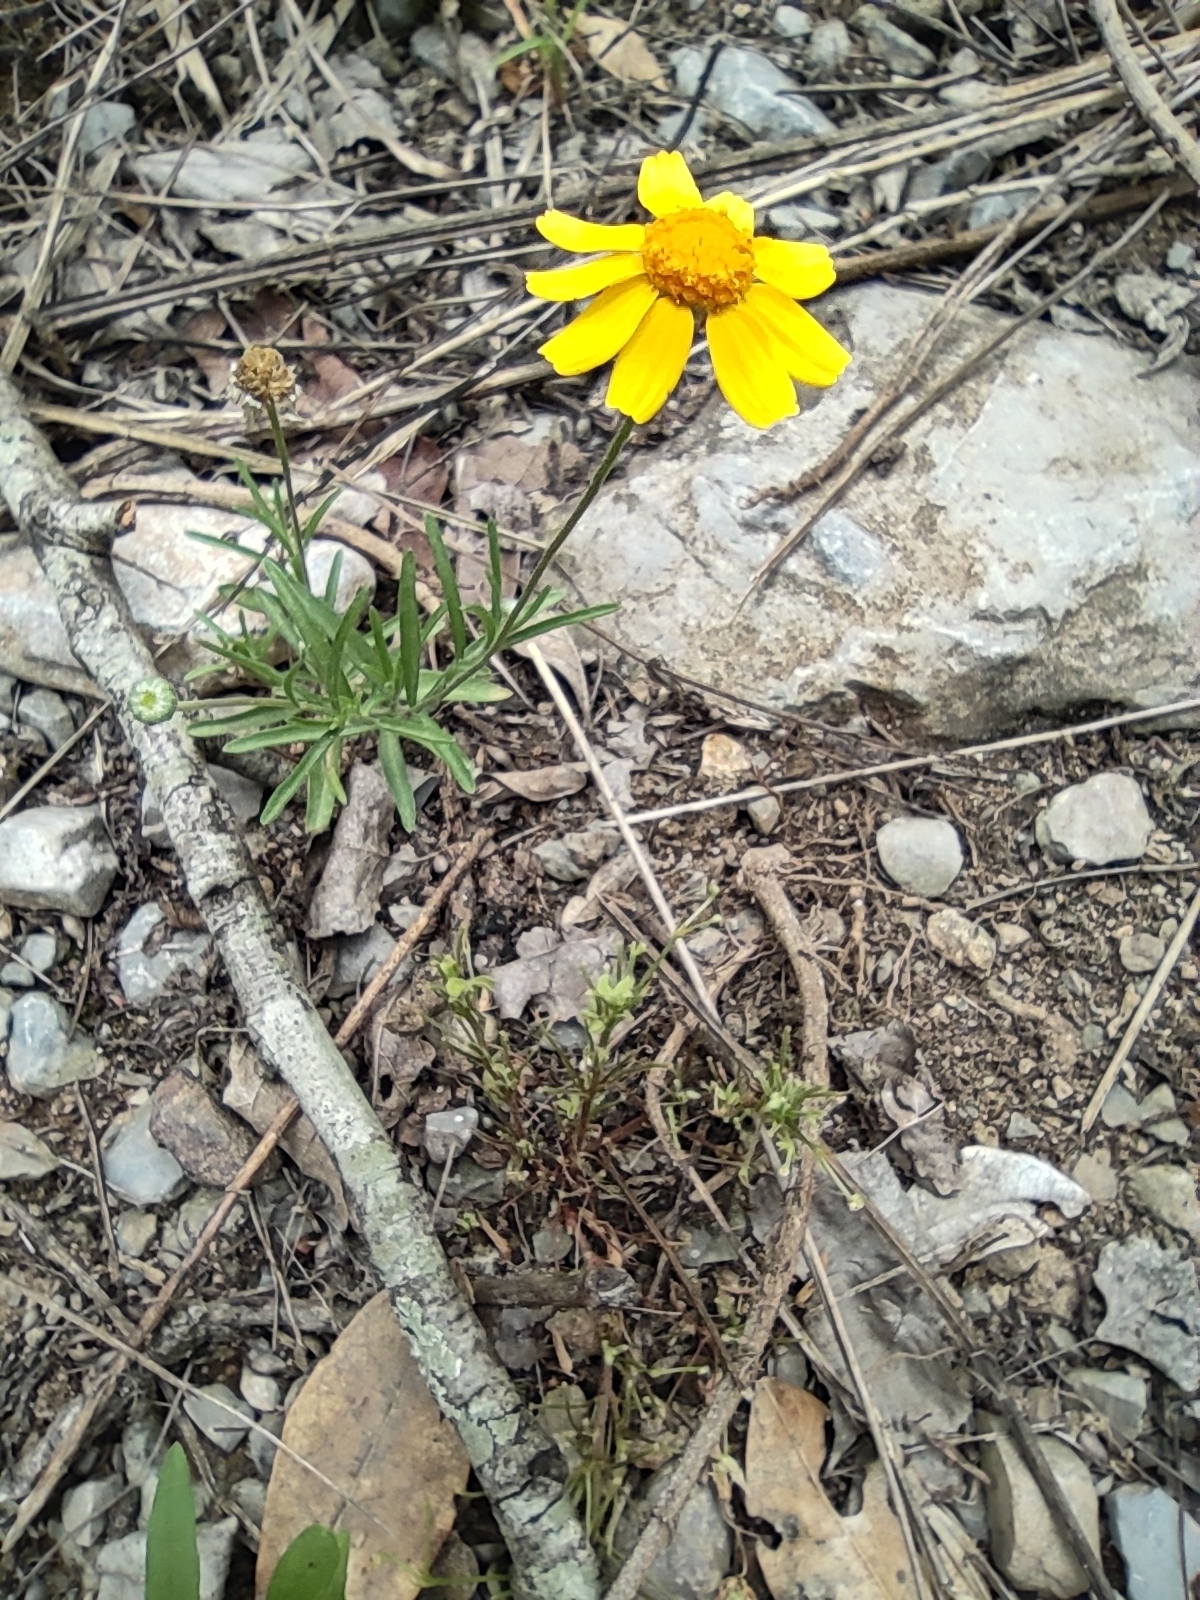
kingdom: Plantae
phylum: Tracheophyta
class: Magnoliopsida
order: Asterales
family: Asteraceae
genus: Tetraneuris
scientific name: Tetraneuris linearifolia
